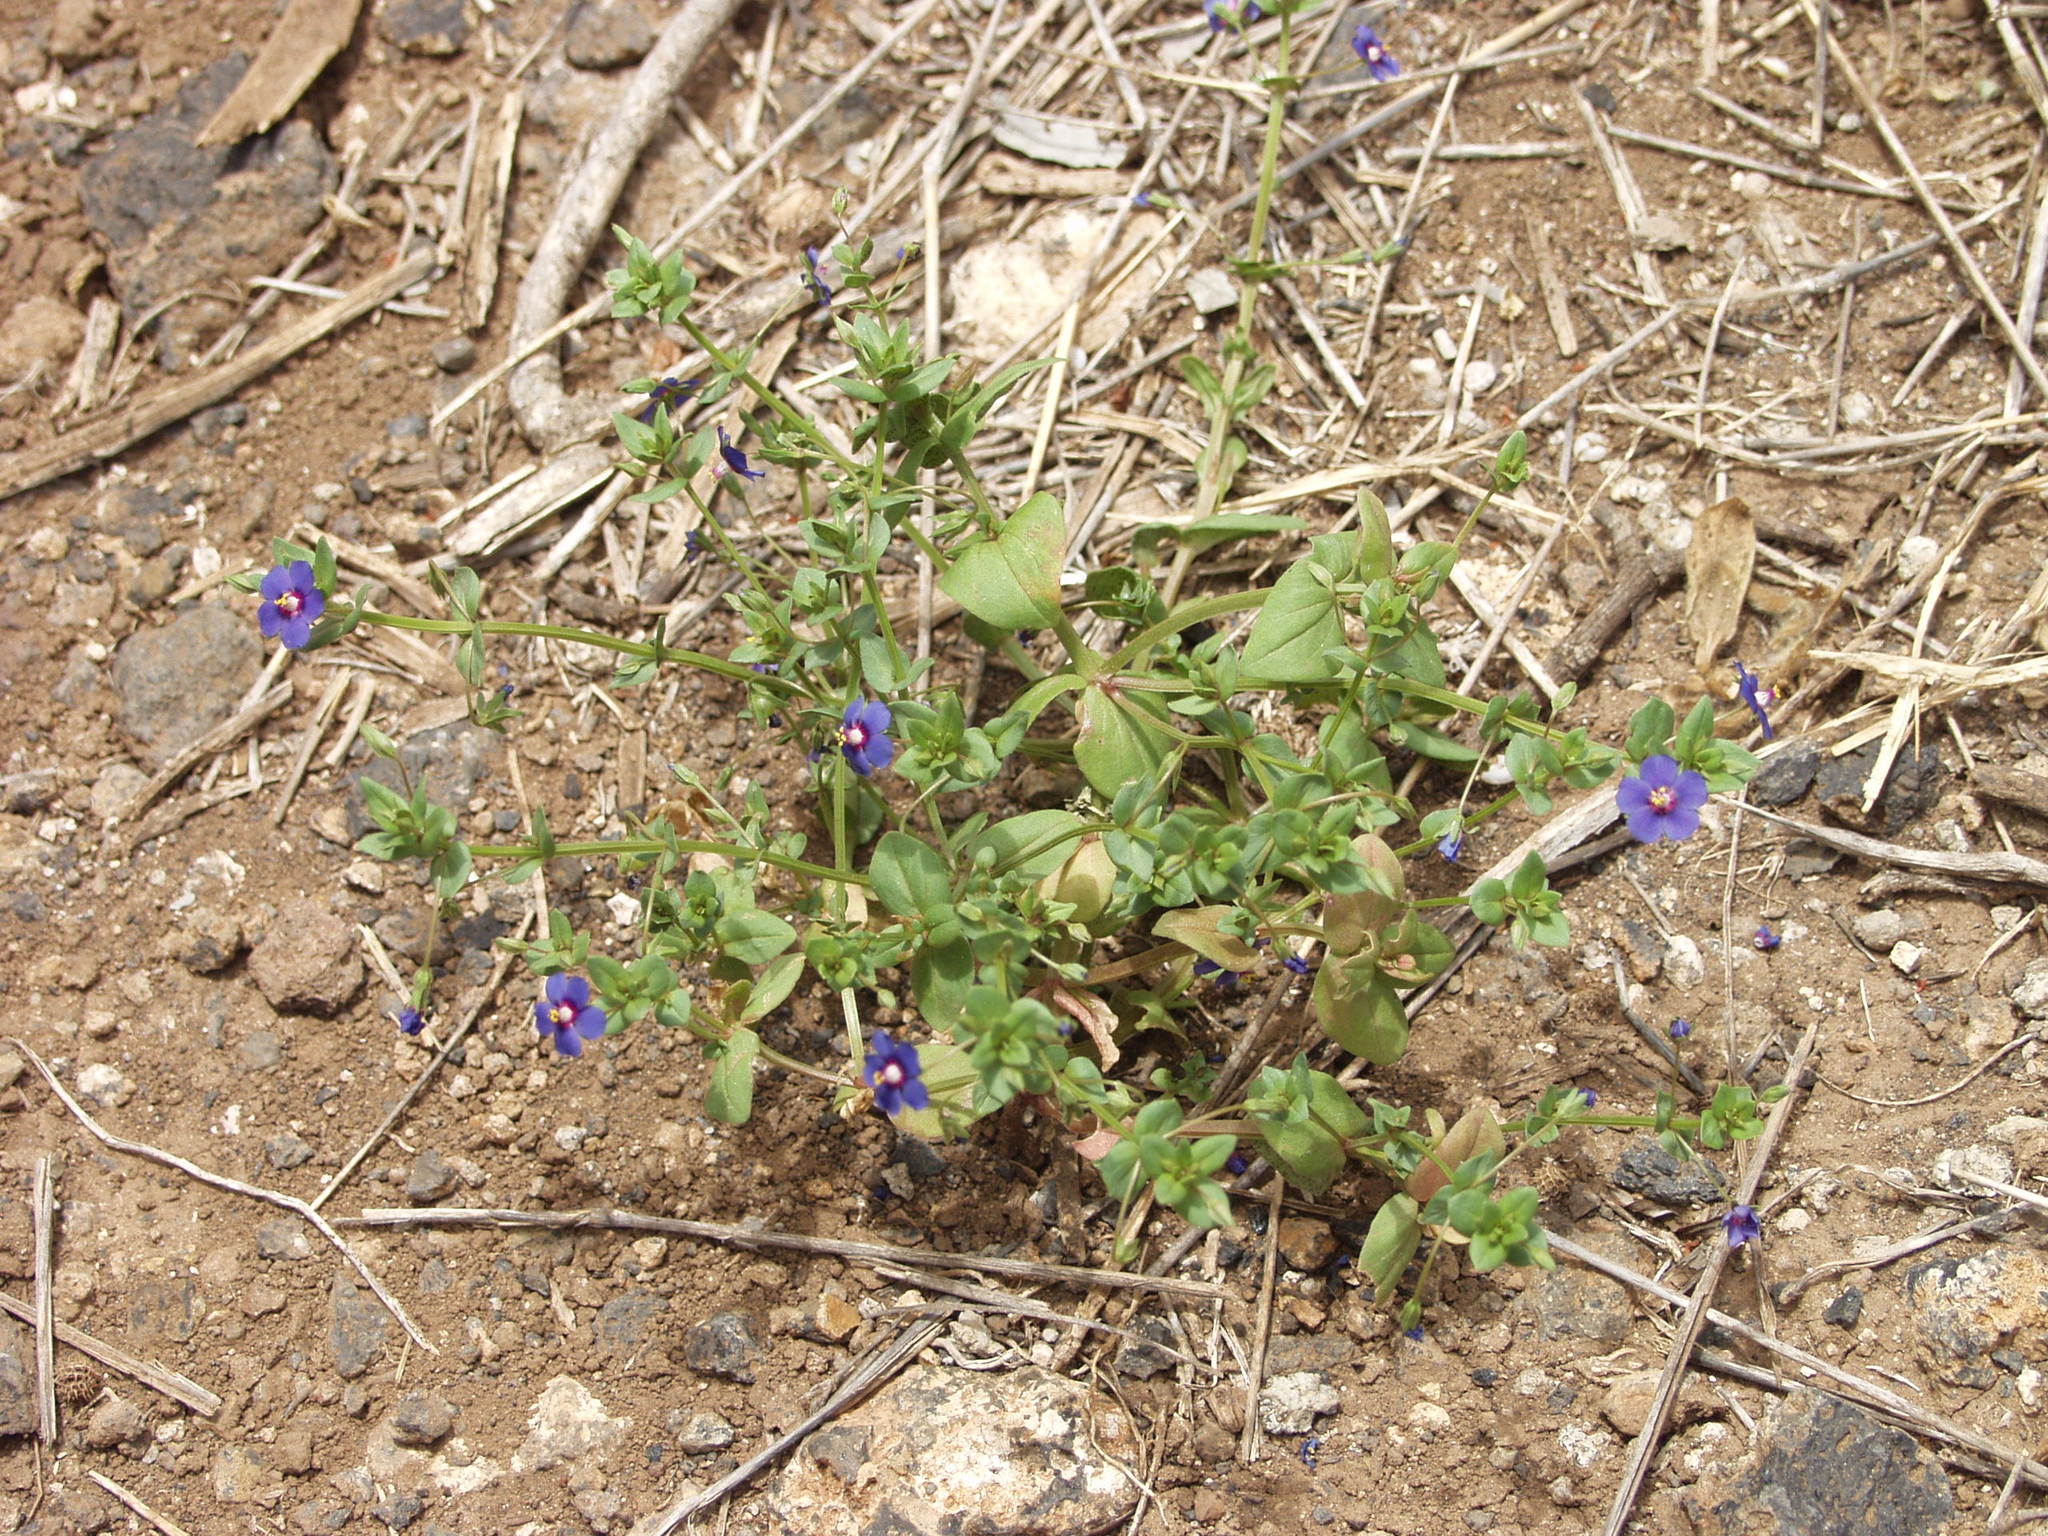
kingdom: Plantae
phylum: Tracheophyta
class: Magnoliopsida
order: Ericales
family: Primulaceae
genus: Lysimachia
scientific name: Lysimachia loeflingii
